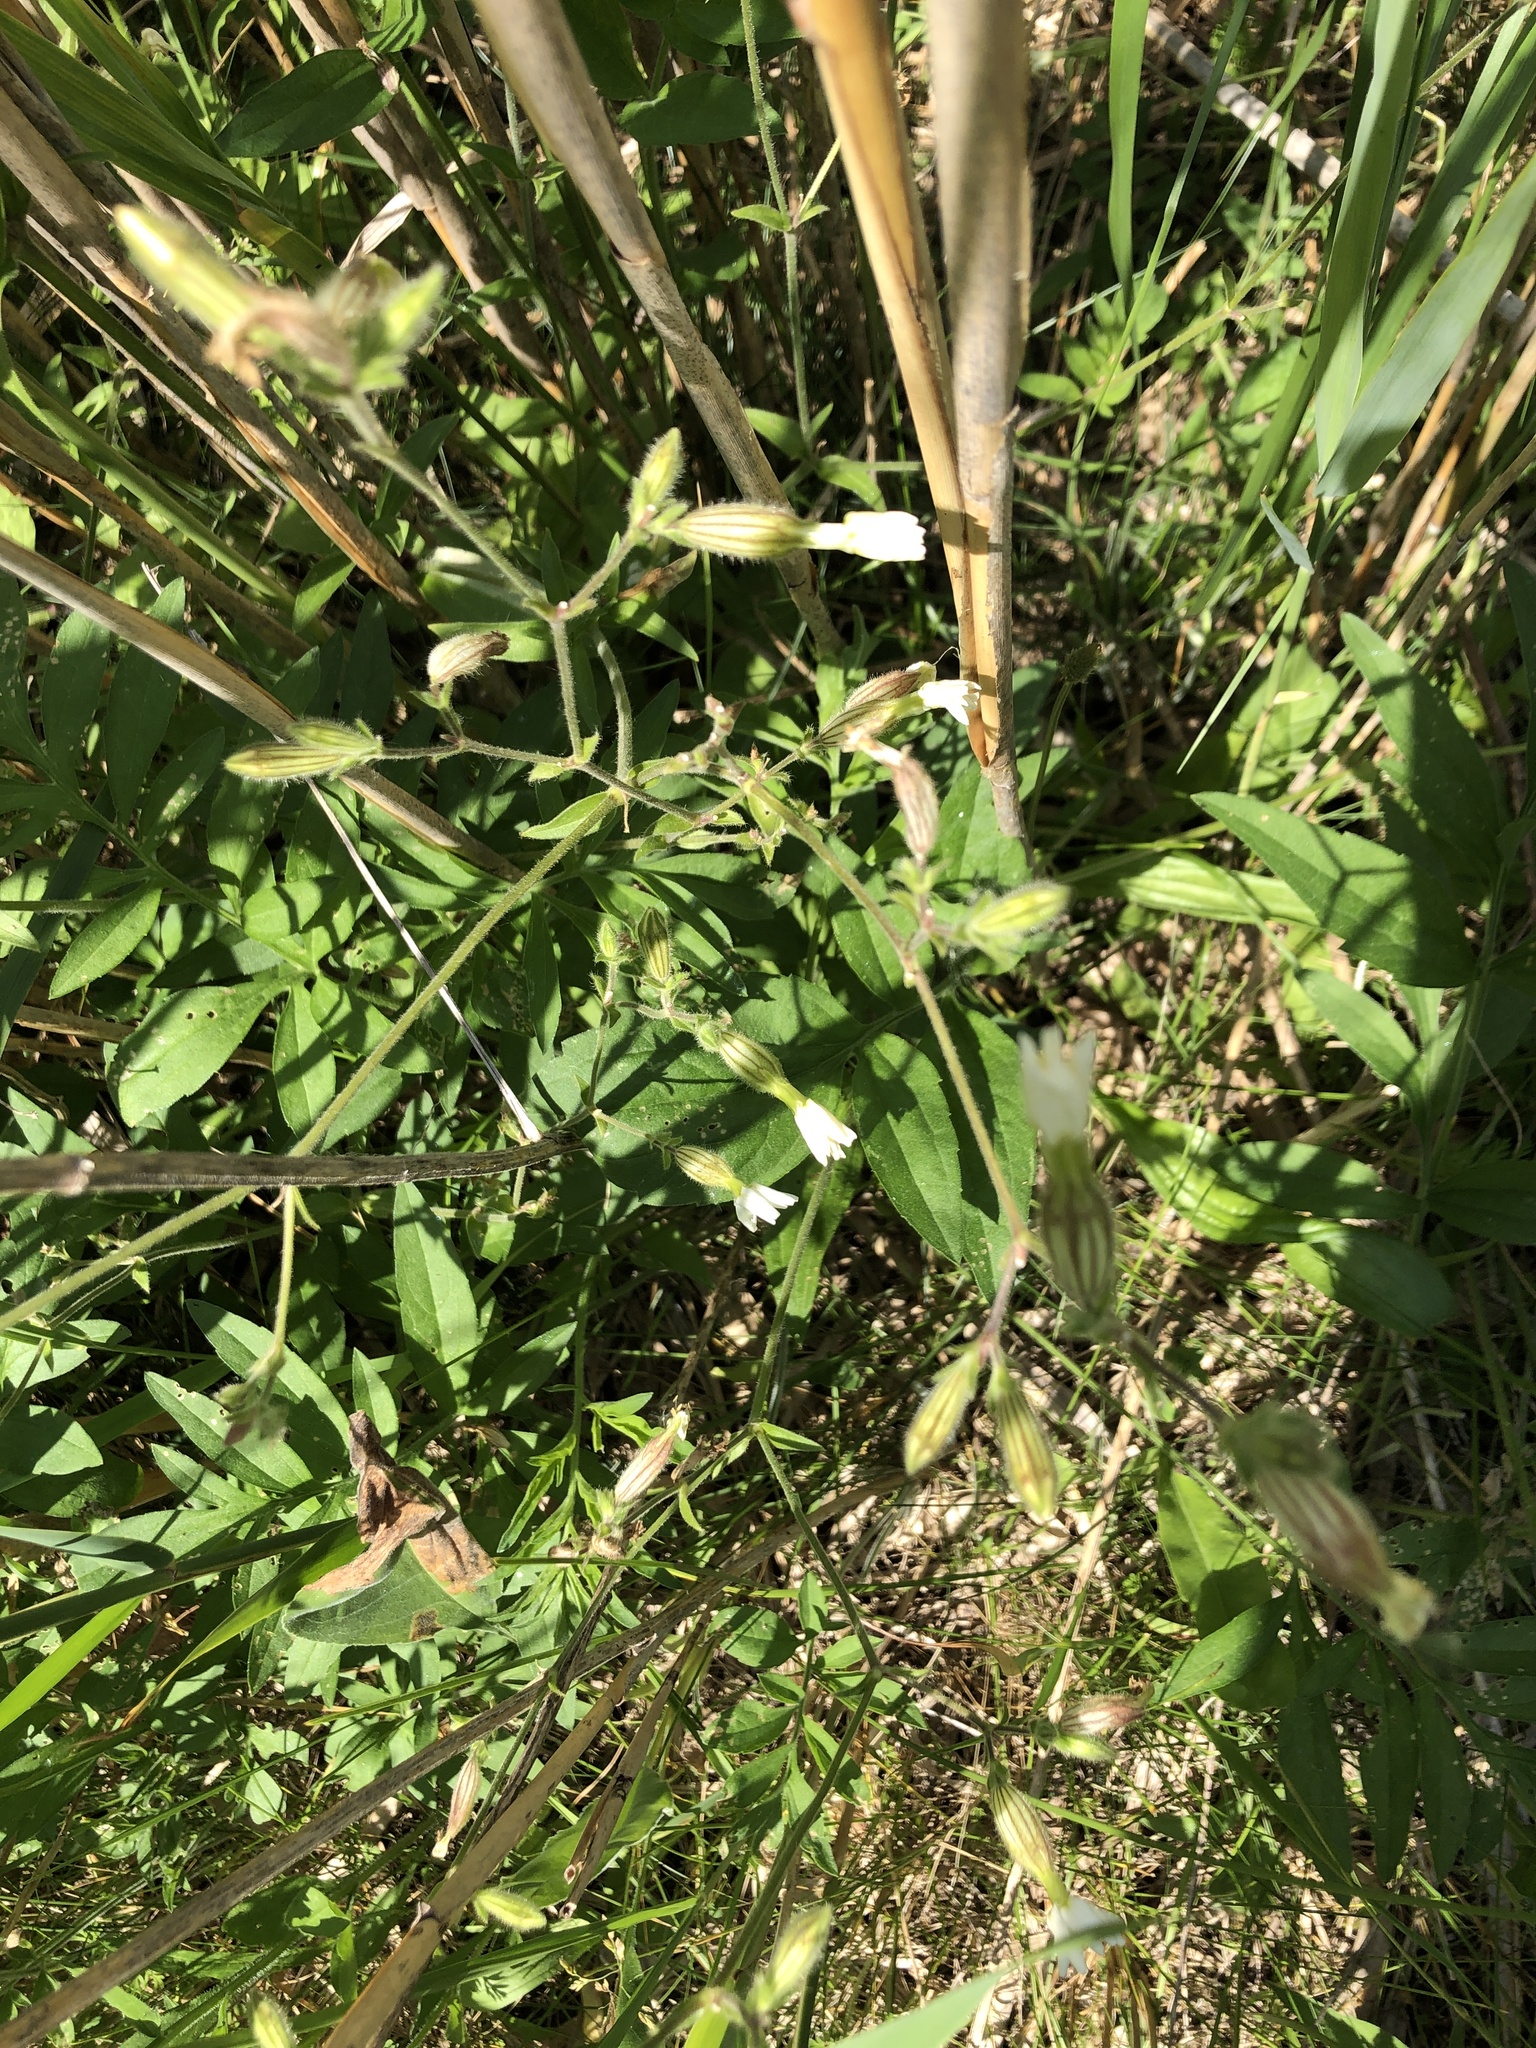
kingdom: Plantae
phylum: Tracheophyta
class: Magnoliopsida
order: Caryophyllales
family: Caryophyllaceae
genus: Silene
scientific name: Silene latifolia
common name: White campion
